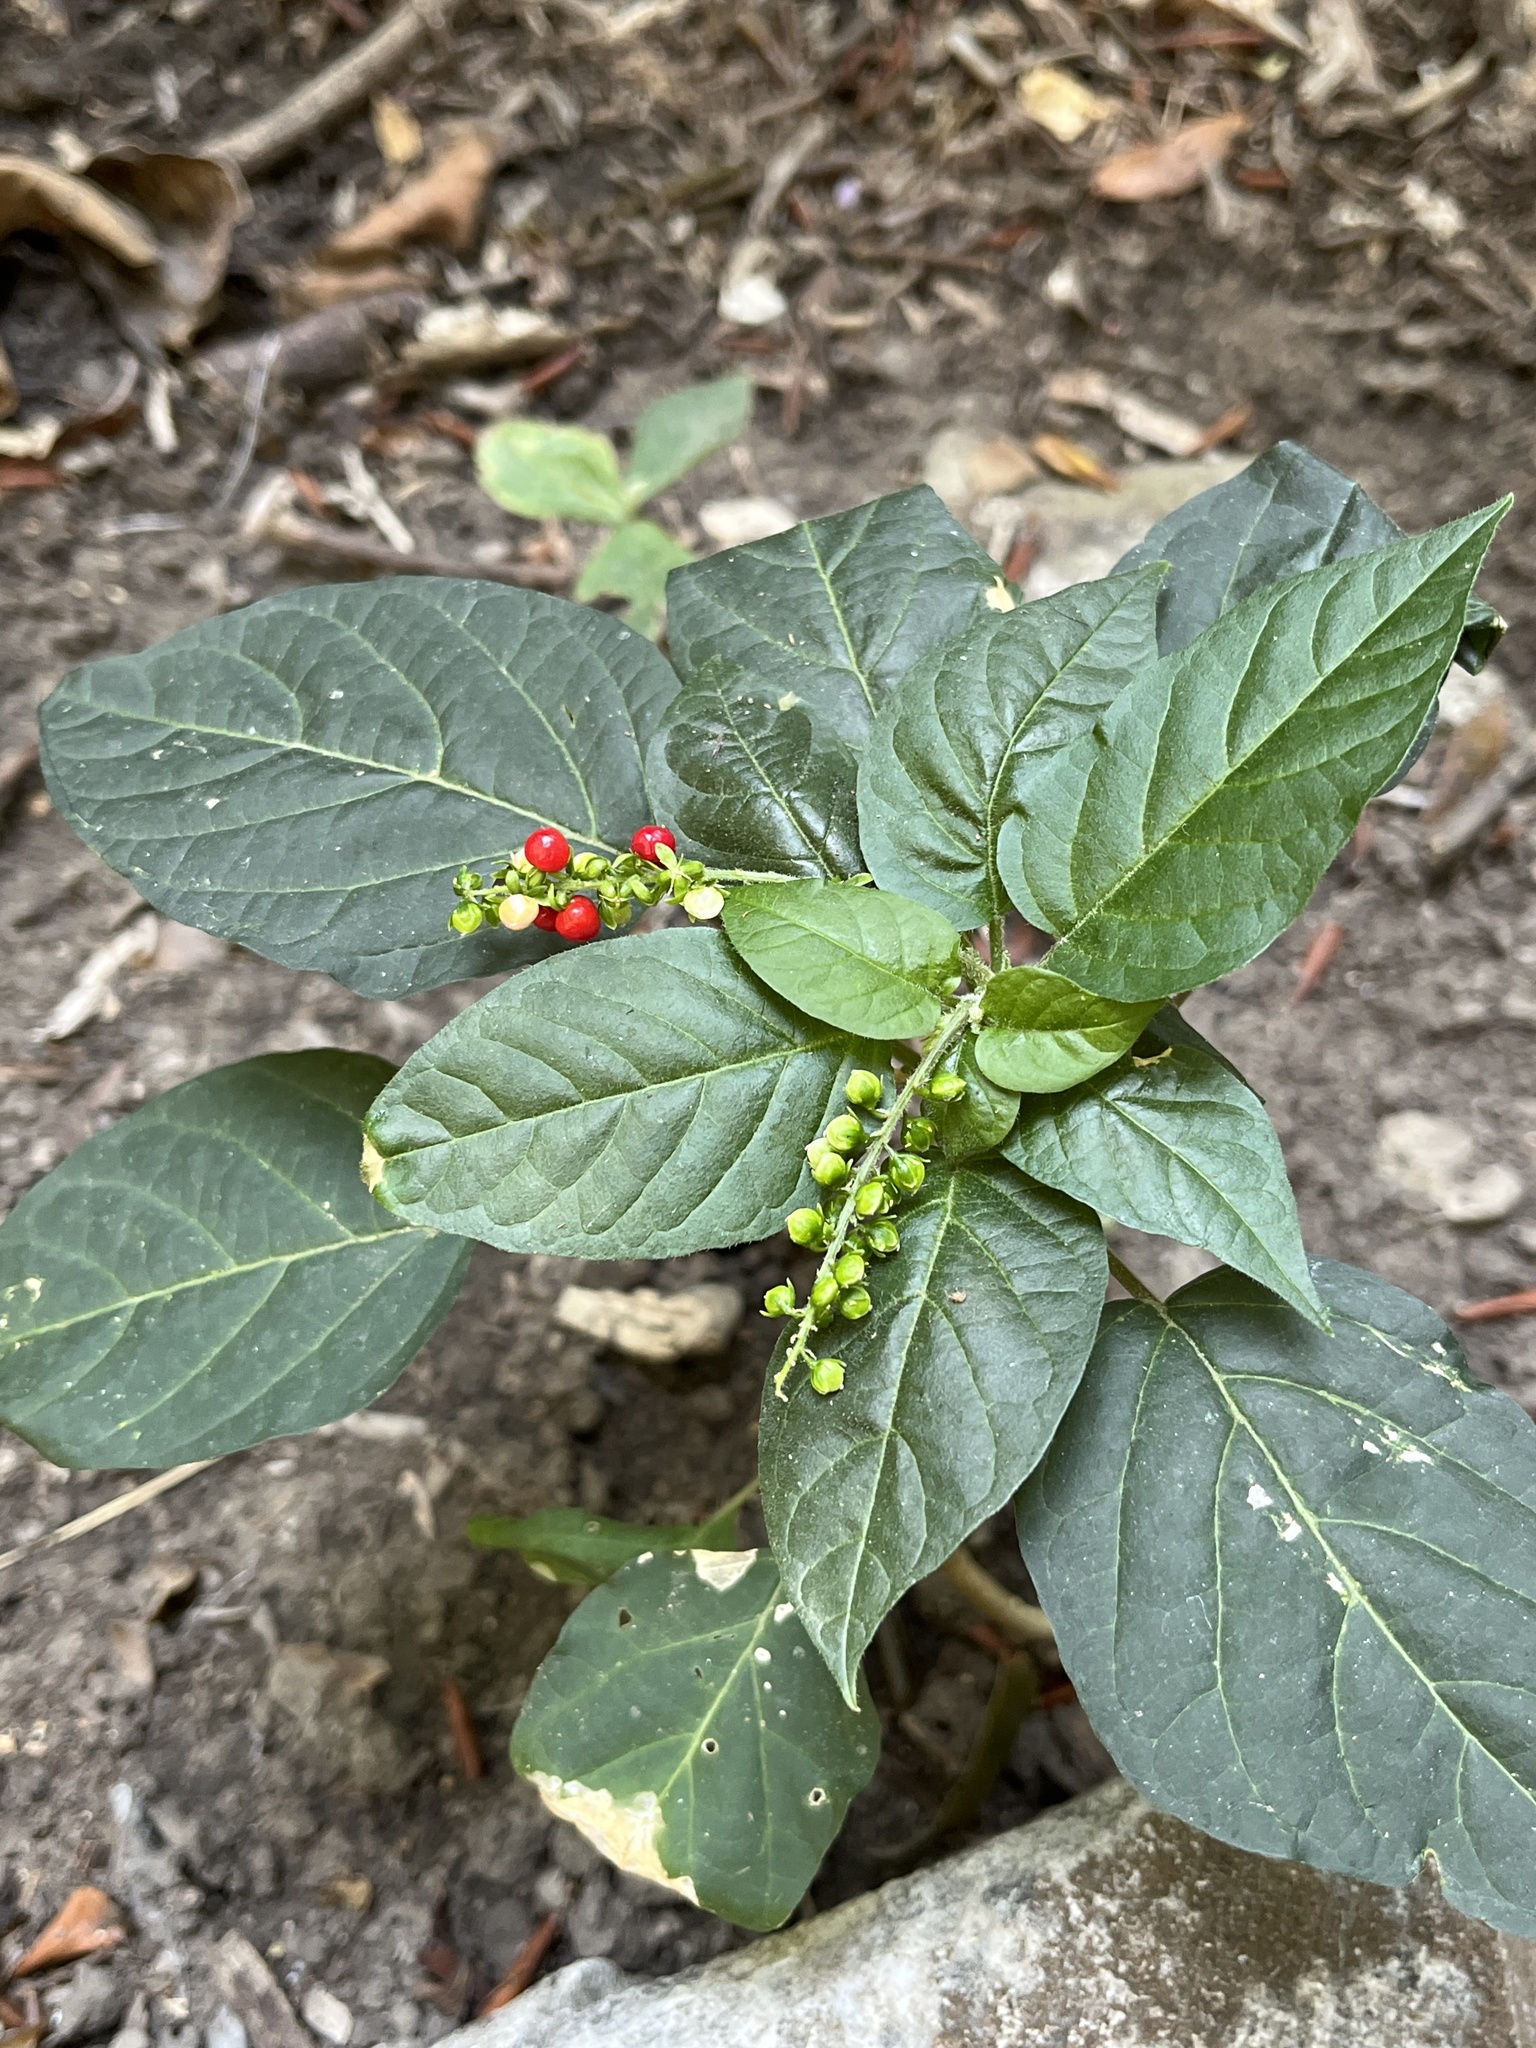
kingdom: Plantae
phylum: Tracheophyta
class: Magnoliopsida
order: Caryophyllales
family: Phytolaccaceae
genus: Rivina
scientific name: Rivina humilis
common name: Rougeplant
